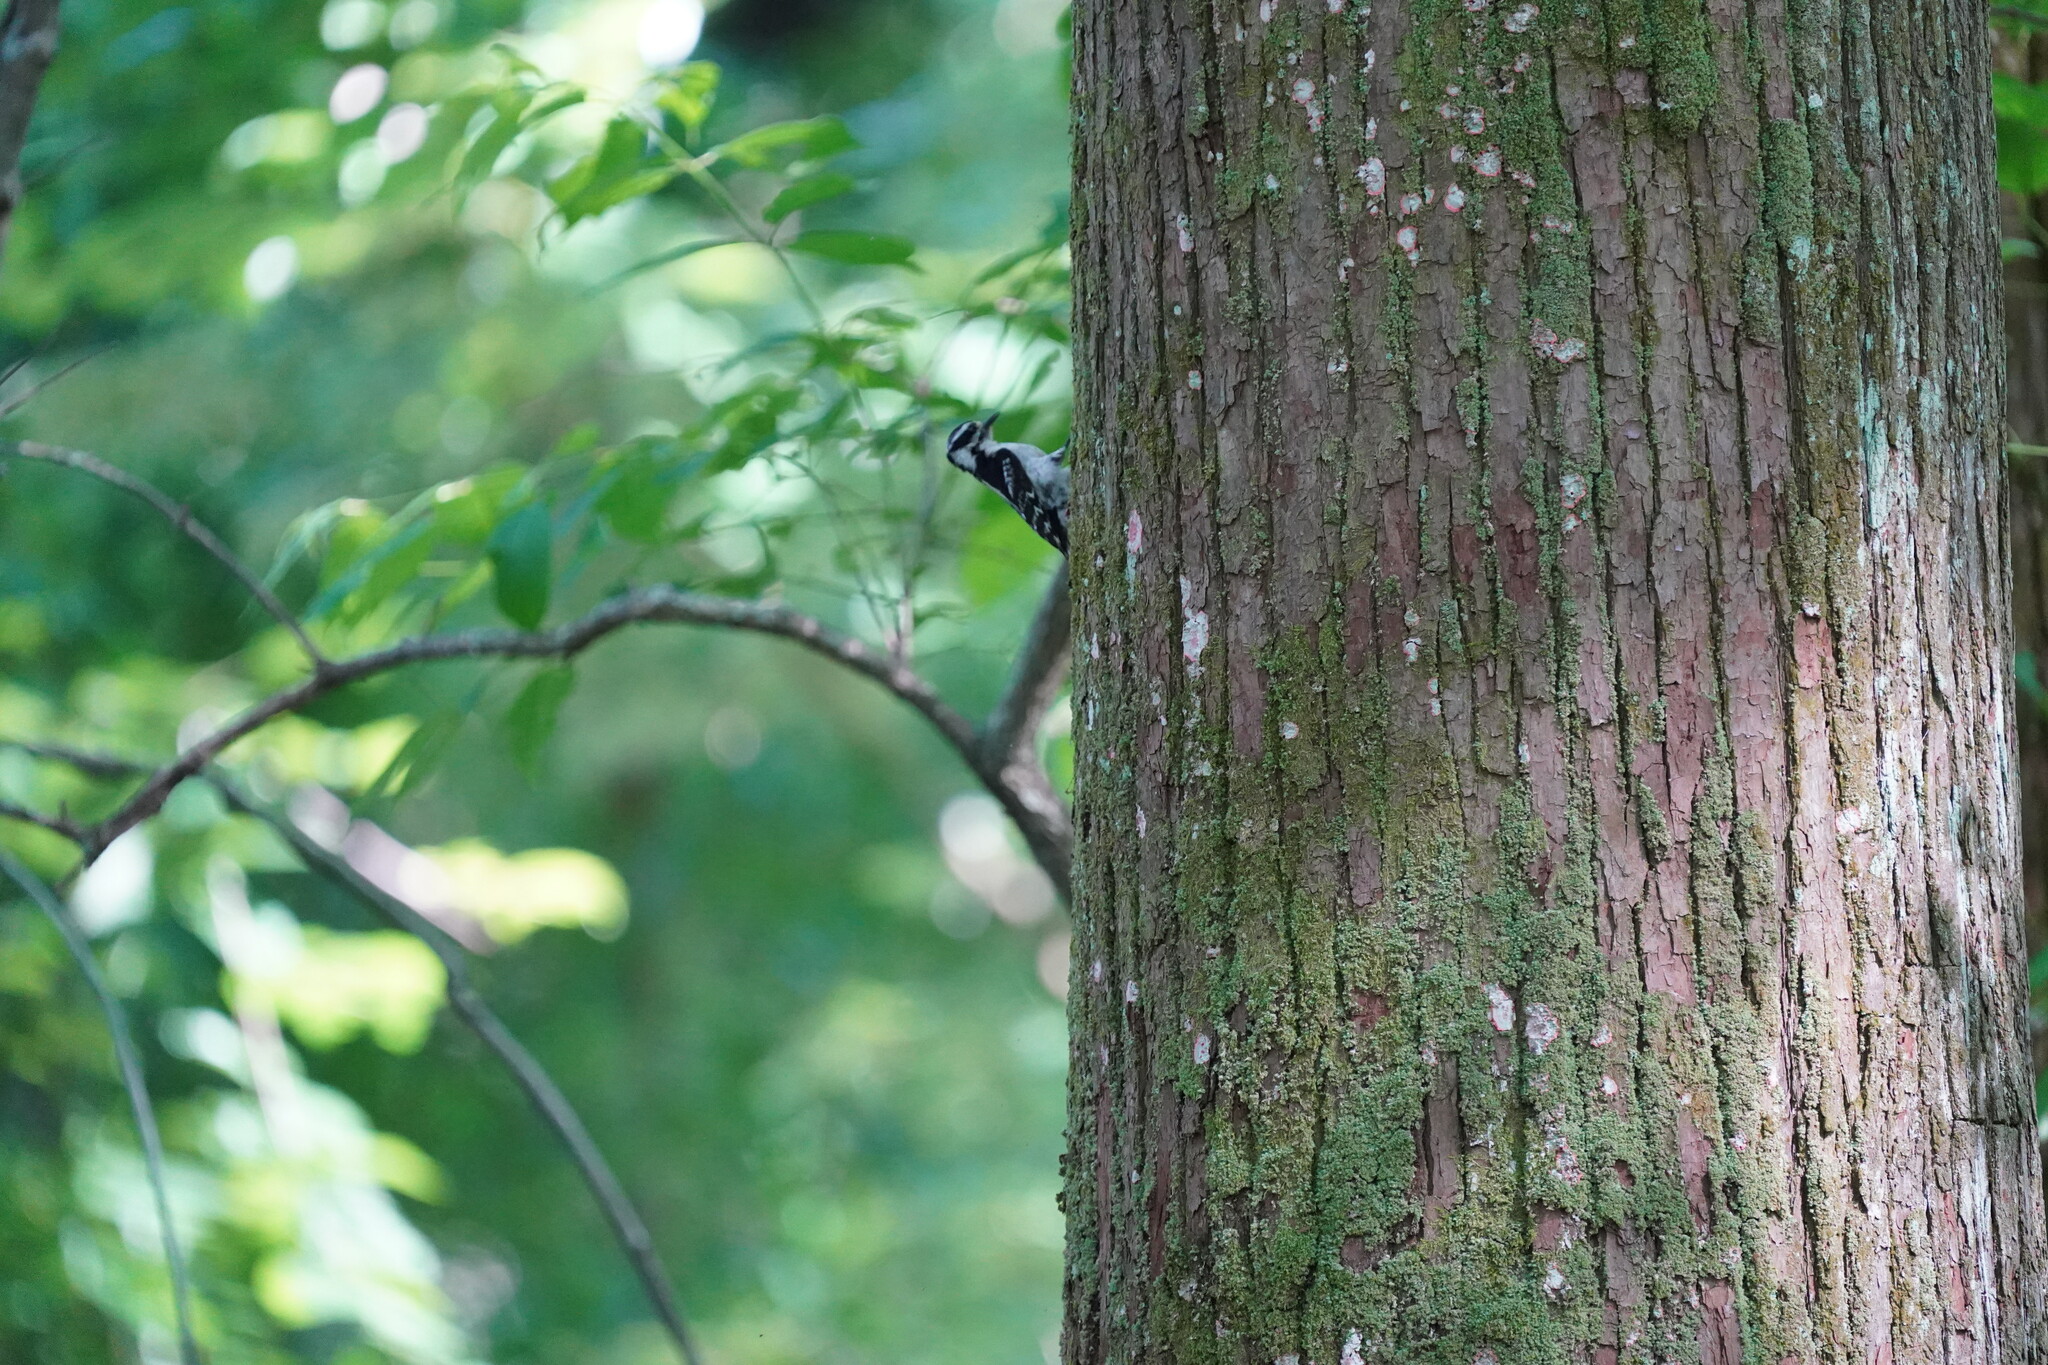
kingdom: Animalia
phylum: Chordata
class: Aves
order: Piciformes
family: Picidae
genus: Dryobates
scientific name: Dryobates pubescens
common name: Downy woodpecker
